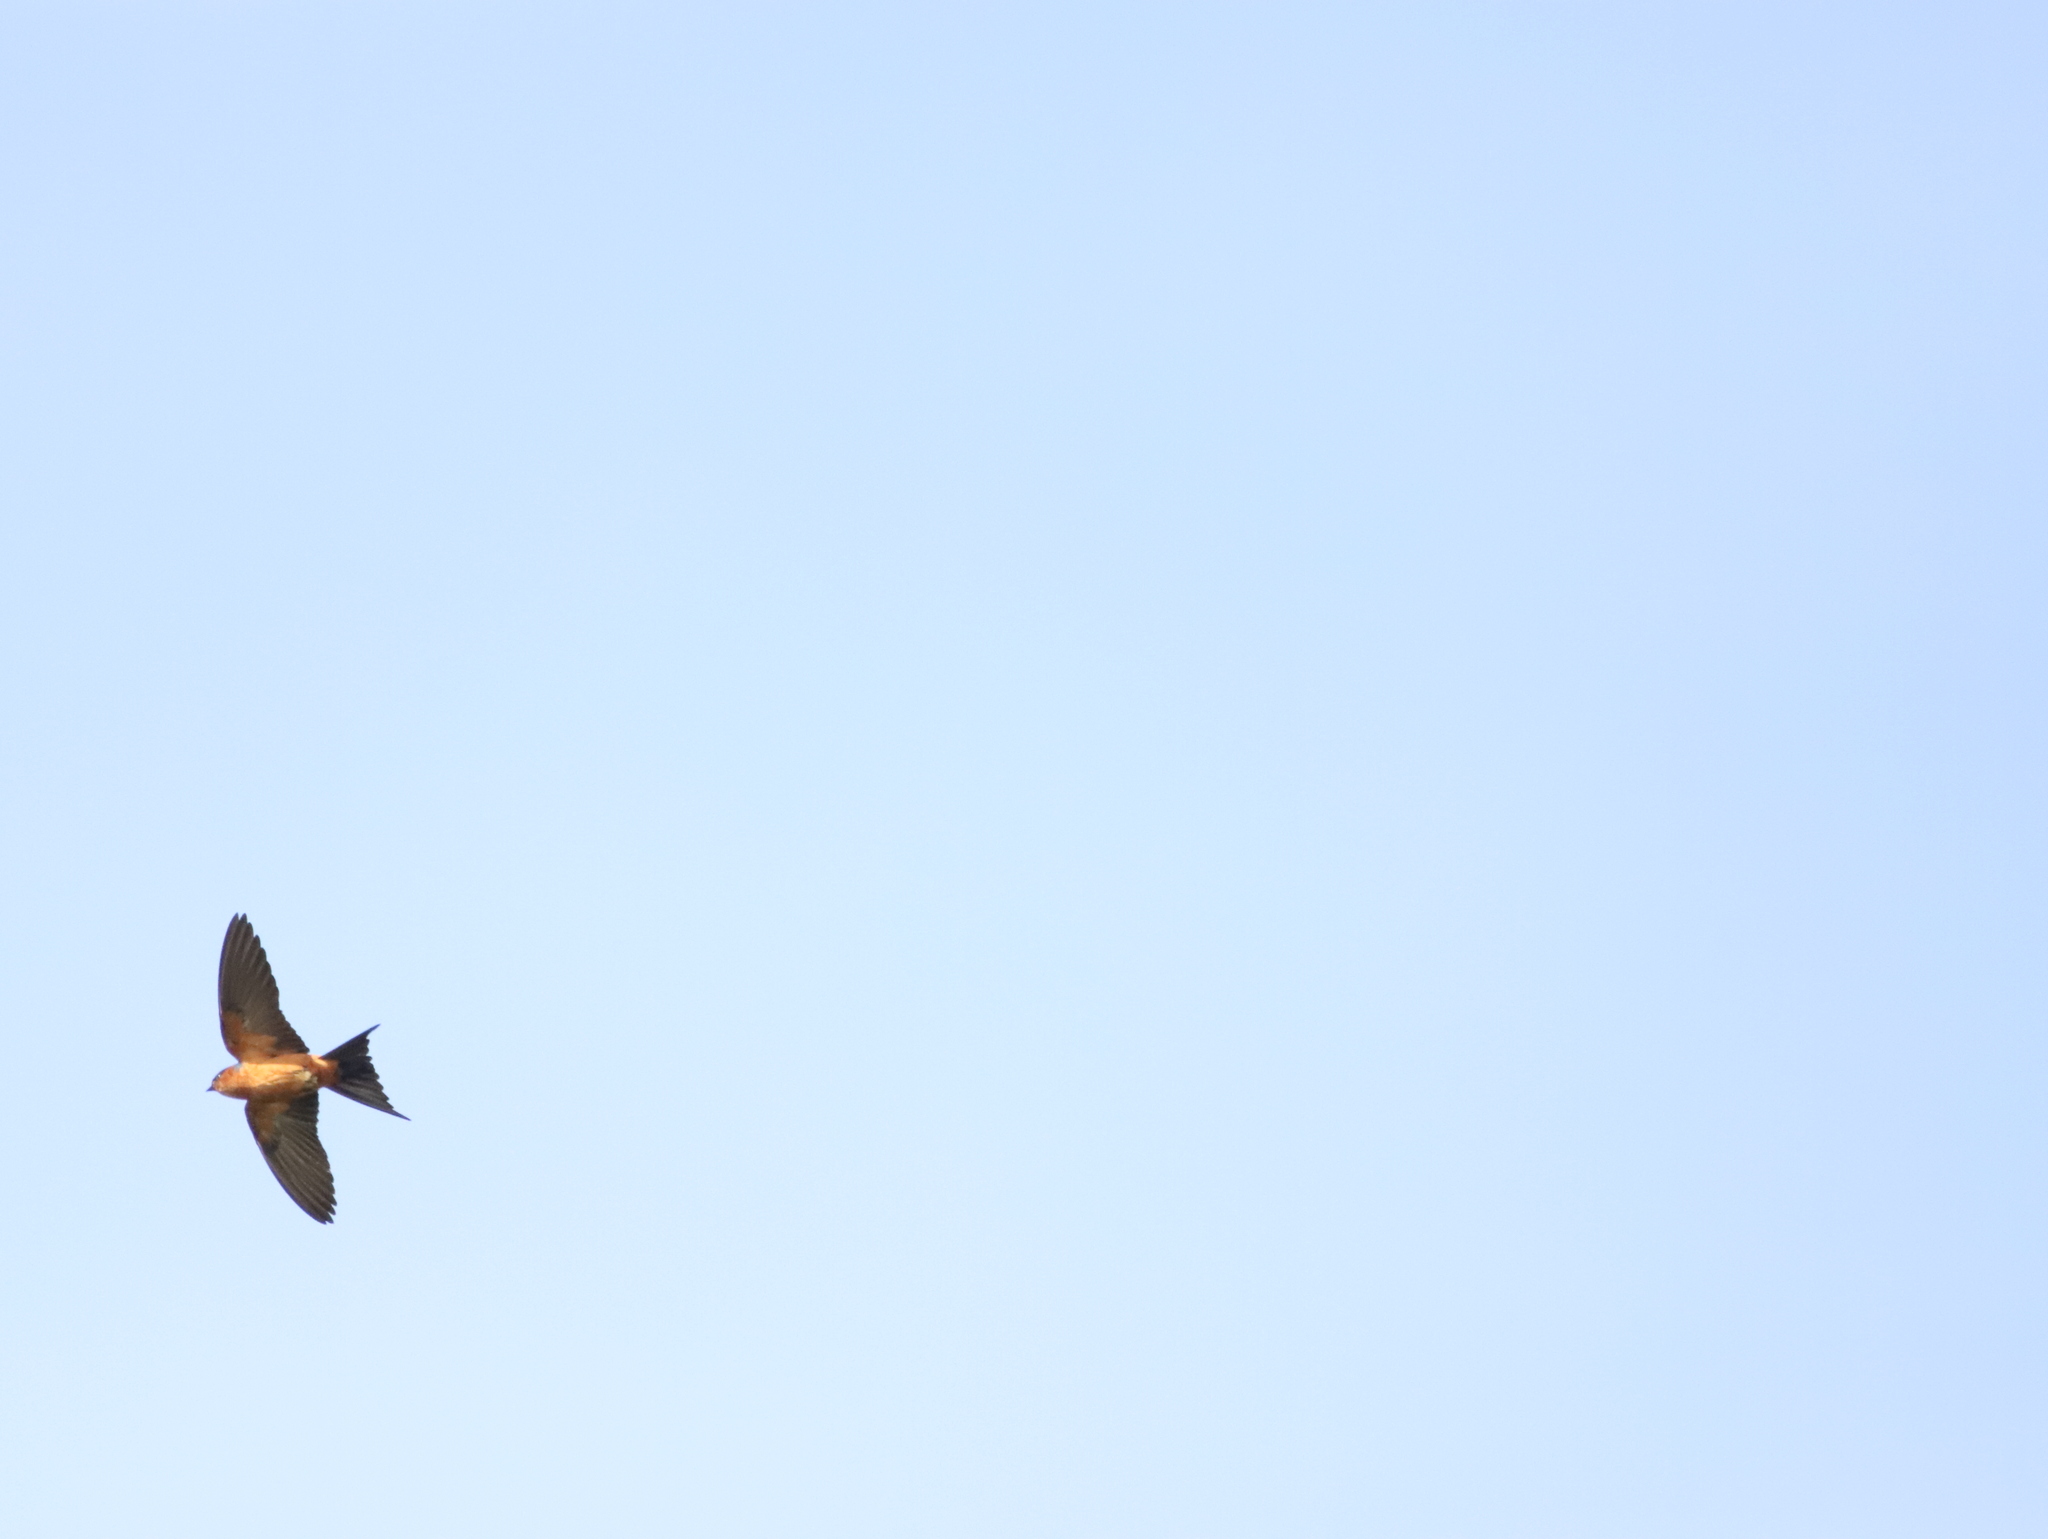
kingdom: Animalia
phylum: Chordata
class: Aves
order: Passeriformes
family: Hirundinidae
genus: Cecropis
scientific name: Cecropis hyperythra
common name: Sri lanka swallow
